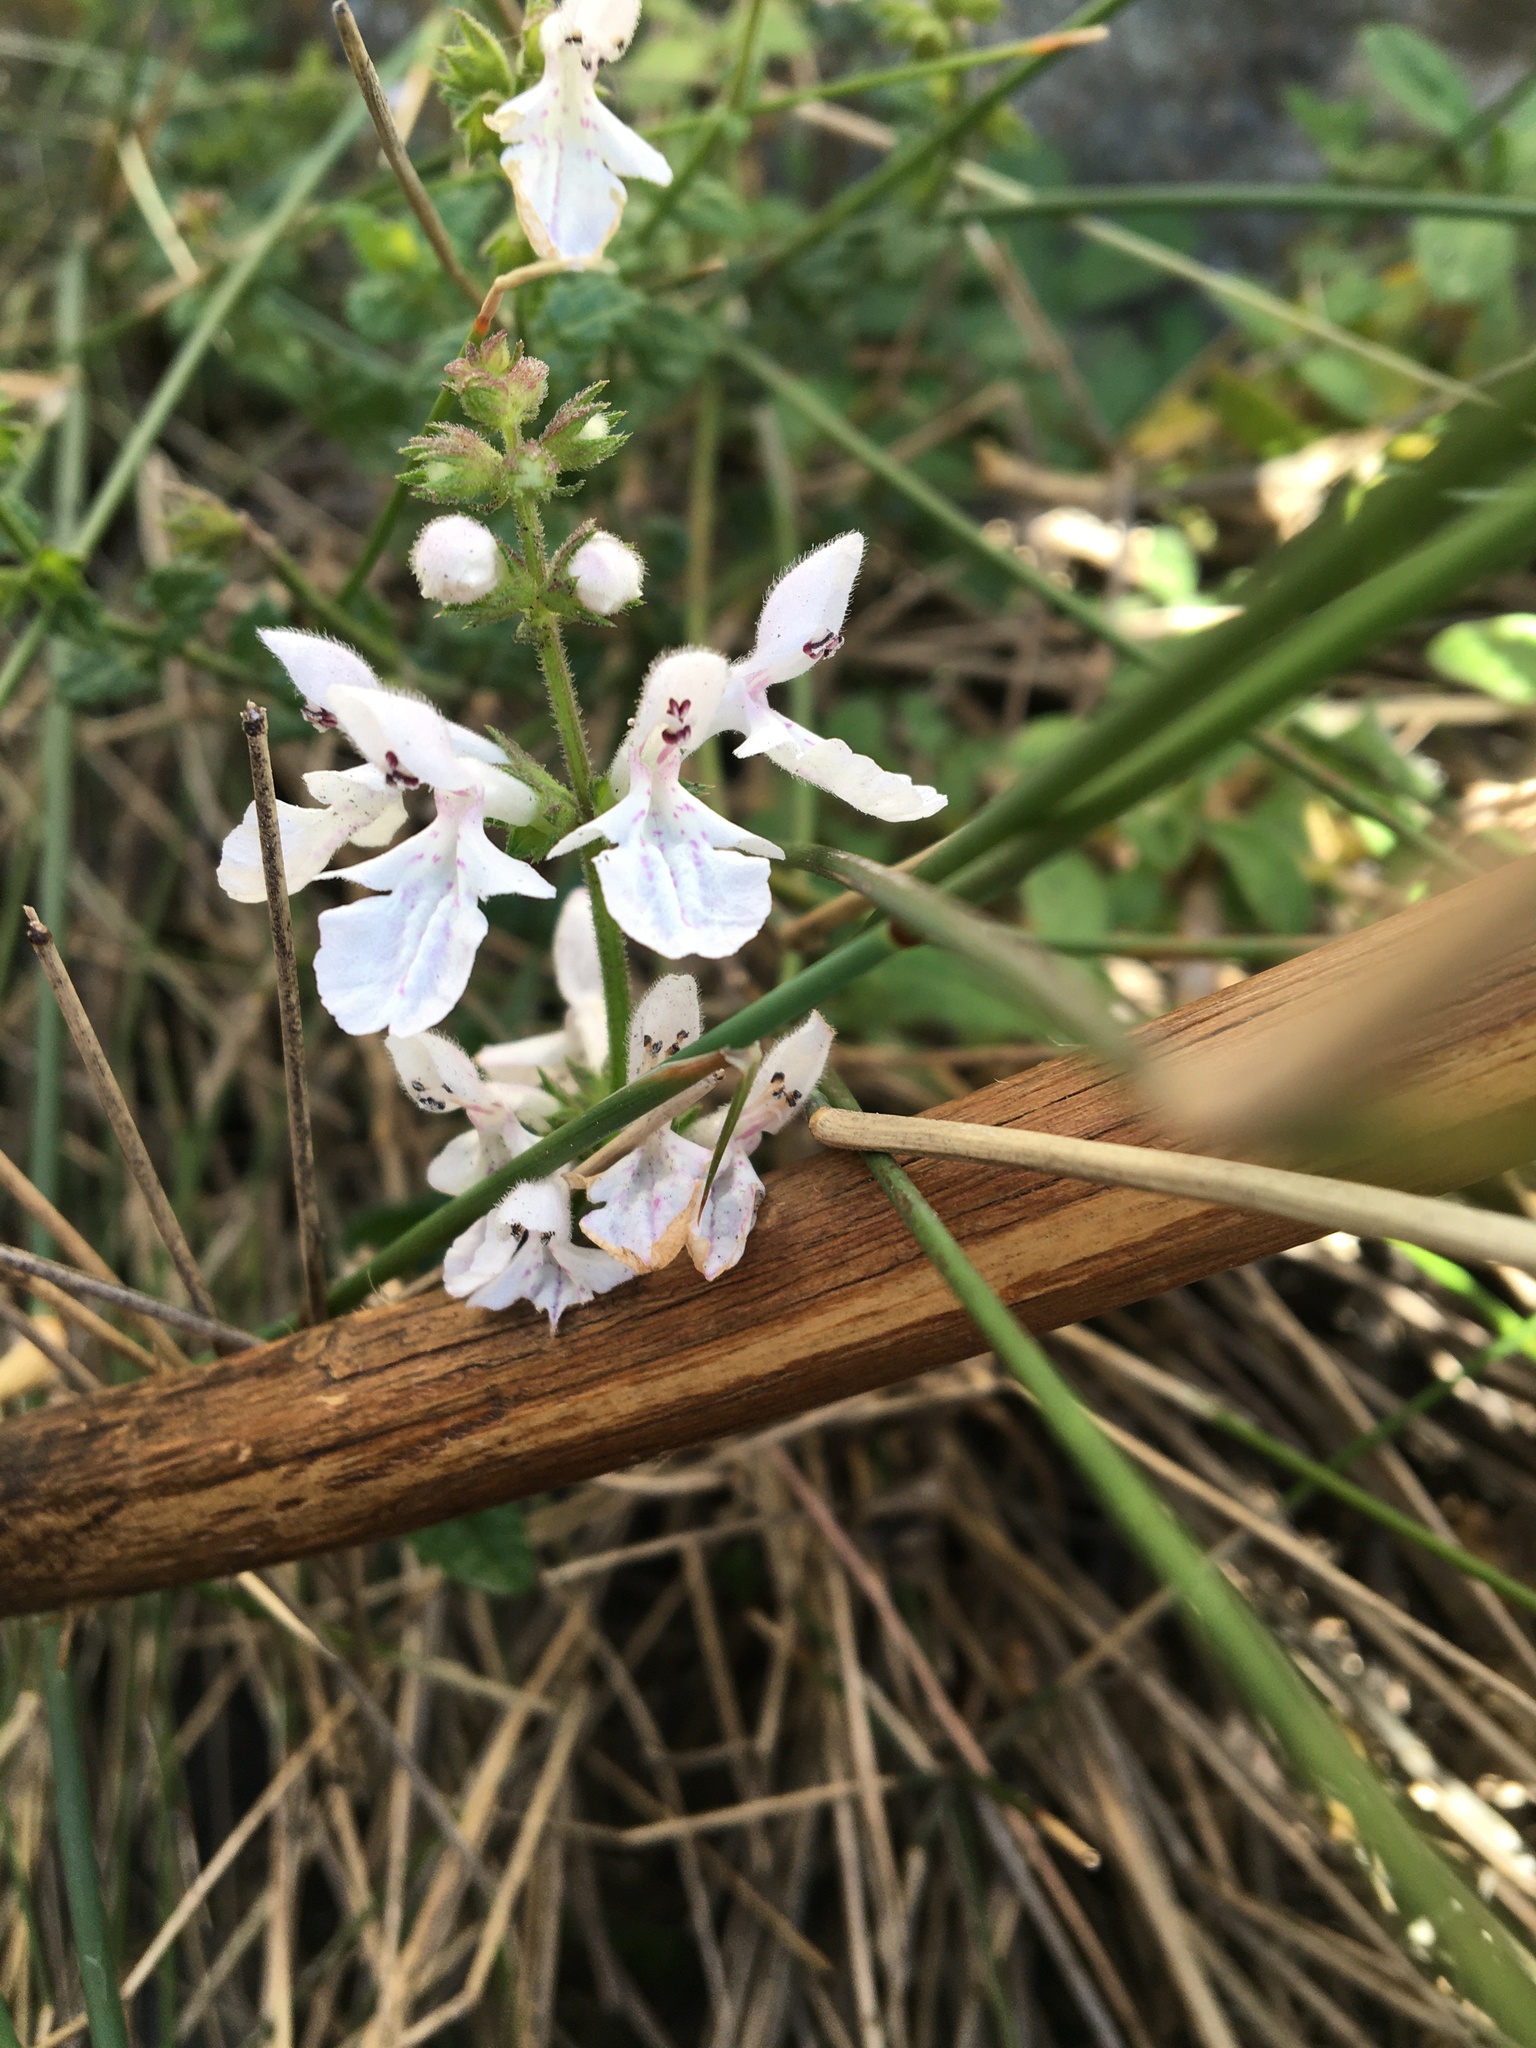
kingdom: Plantae
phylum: Tracheophyta
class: Magnoliopsida
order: Lamiales
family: Lamiaceae
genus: Stachys
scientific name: Stachys aethiopica
